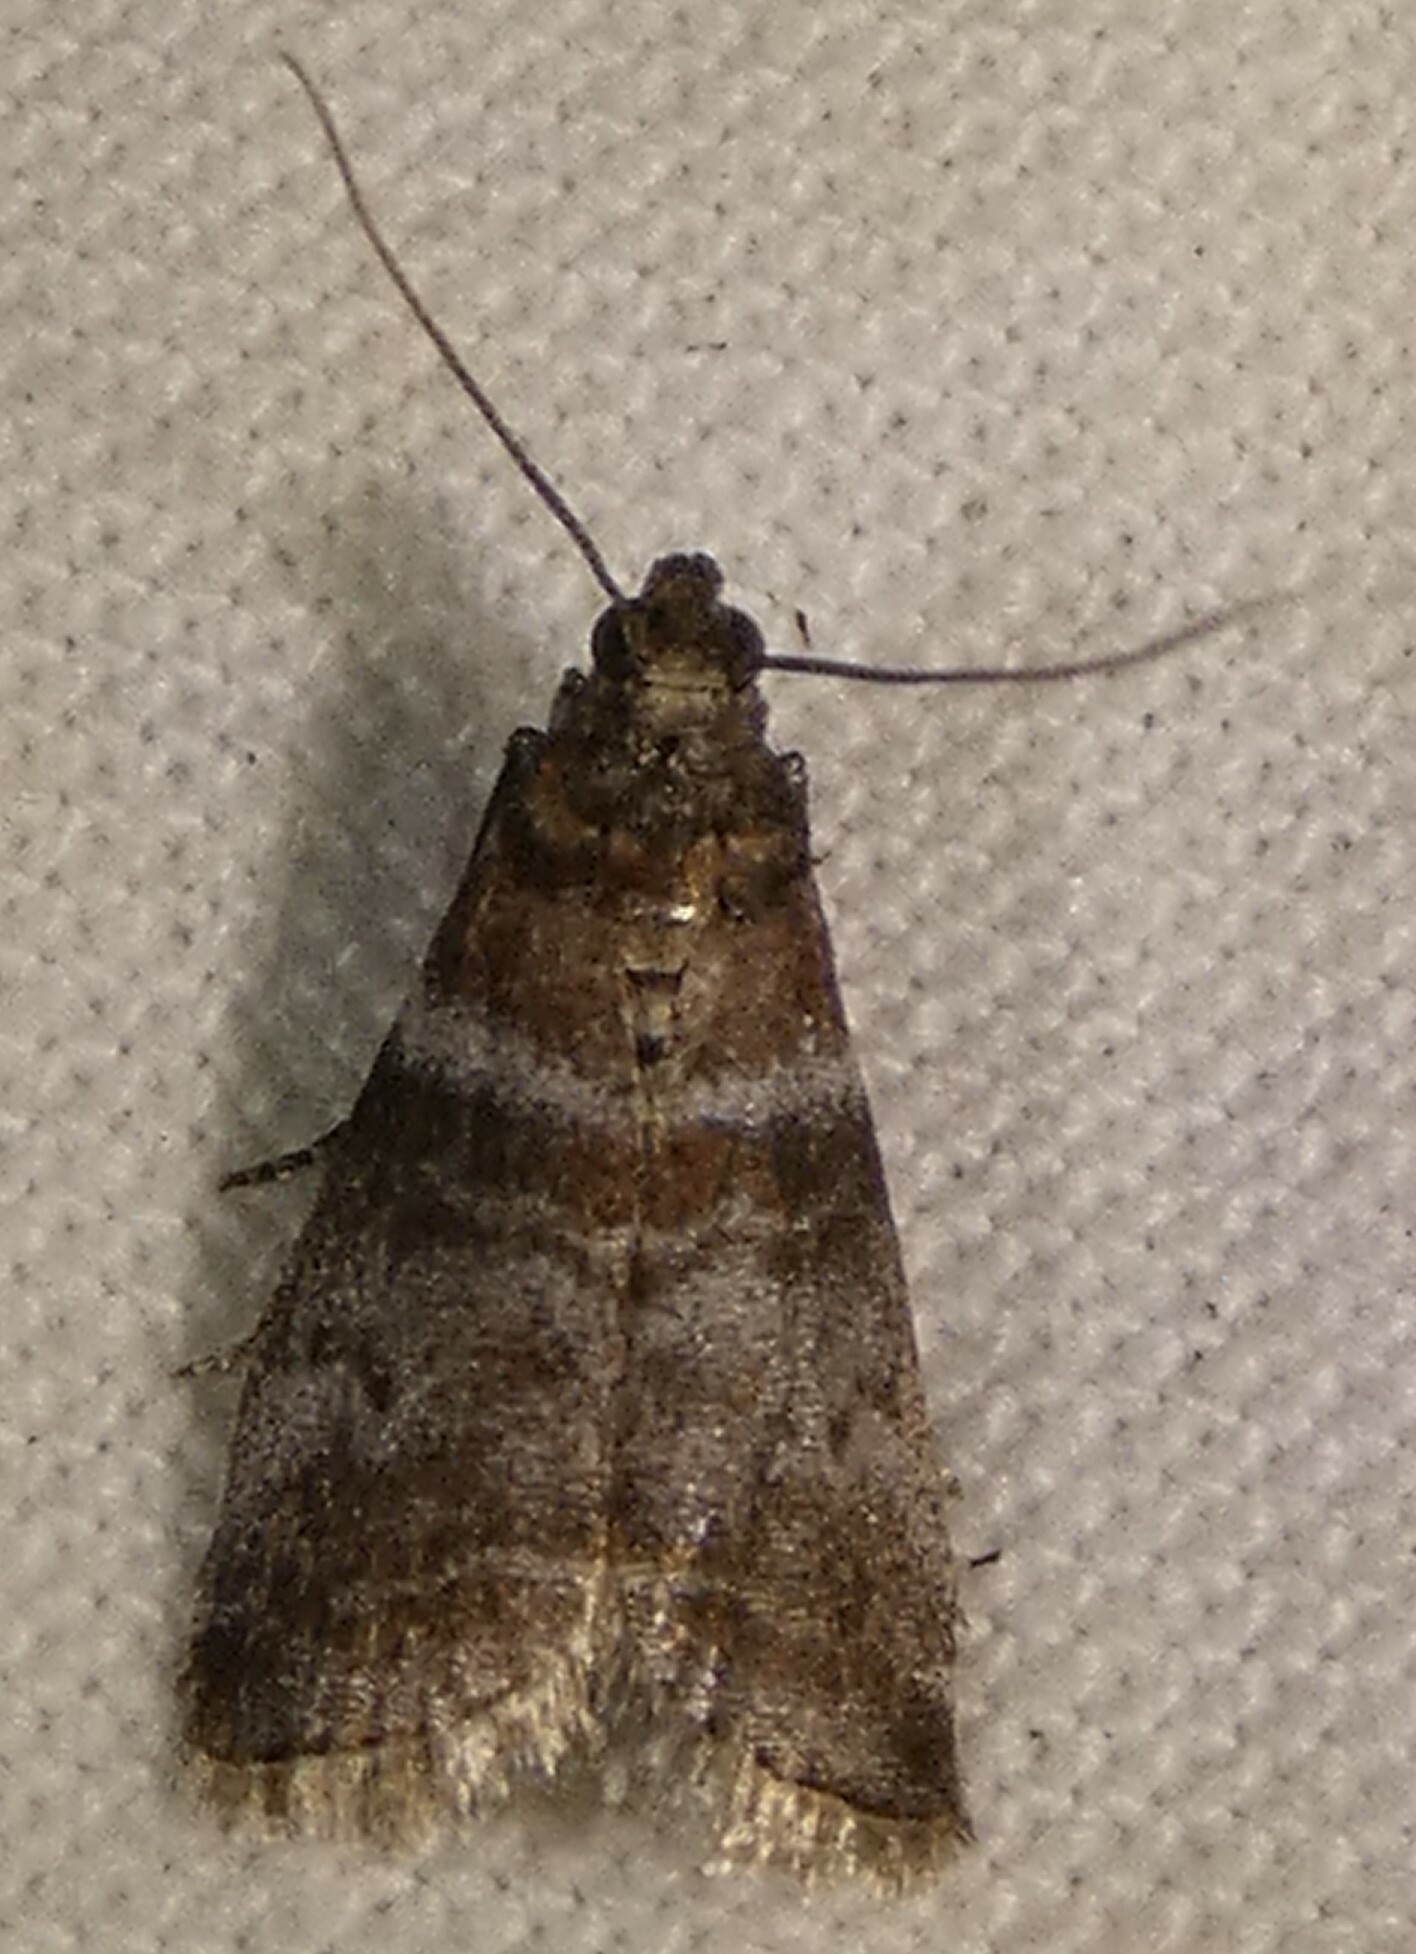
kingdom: Animalia
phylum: Arthropoda
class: Insecta
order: Lepidoptera
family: Pyralidae
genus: Sciota
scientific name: Sciota uvinella
